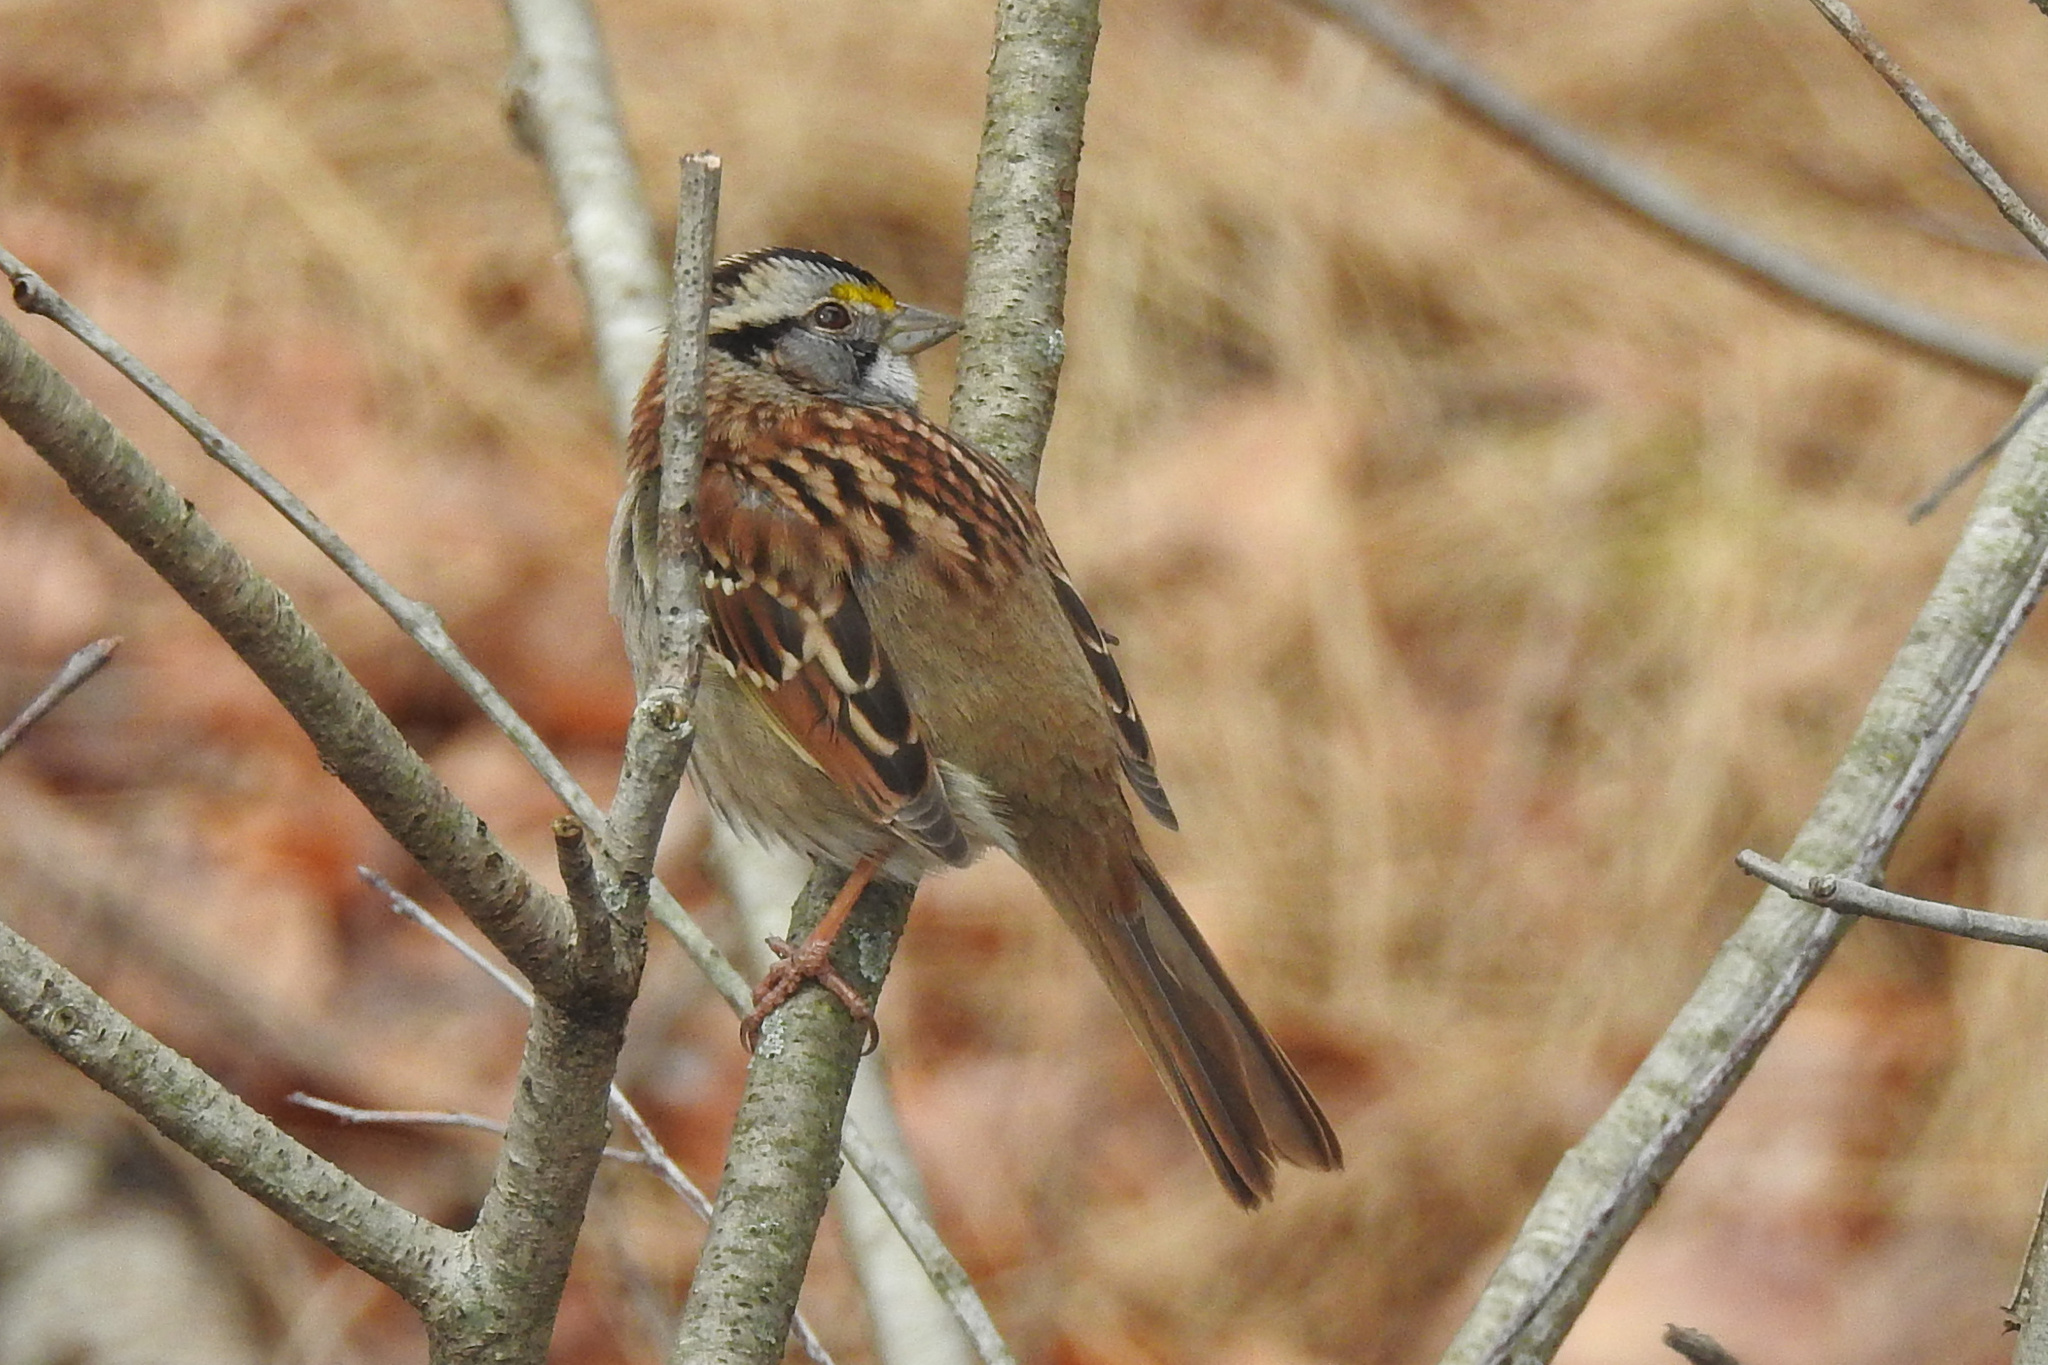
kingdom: Animalia
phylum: Chordata
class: Aves
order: Passeriformes
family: Passerellidae
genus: Zonotrichia
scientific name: Zonotrichia albicollis
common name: White-throated sparrow
